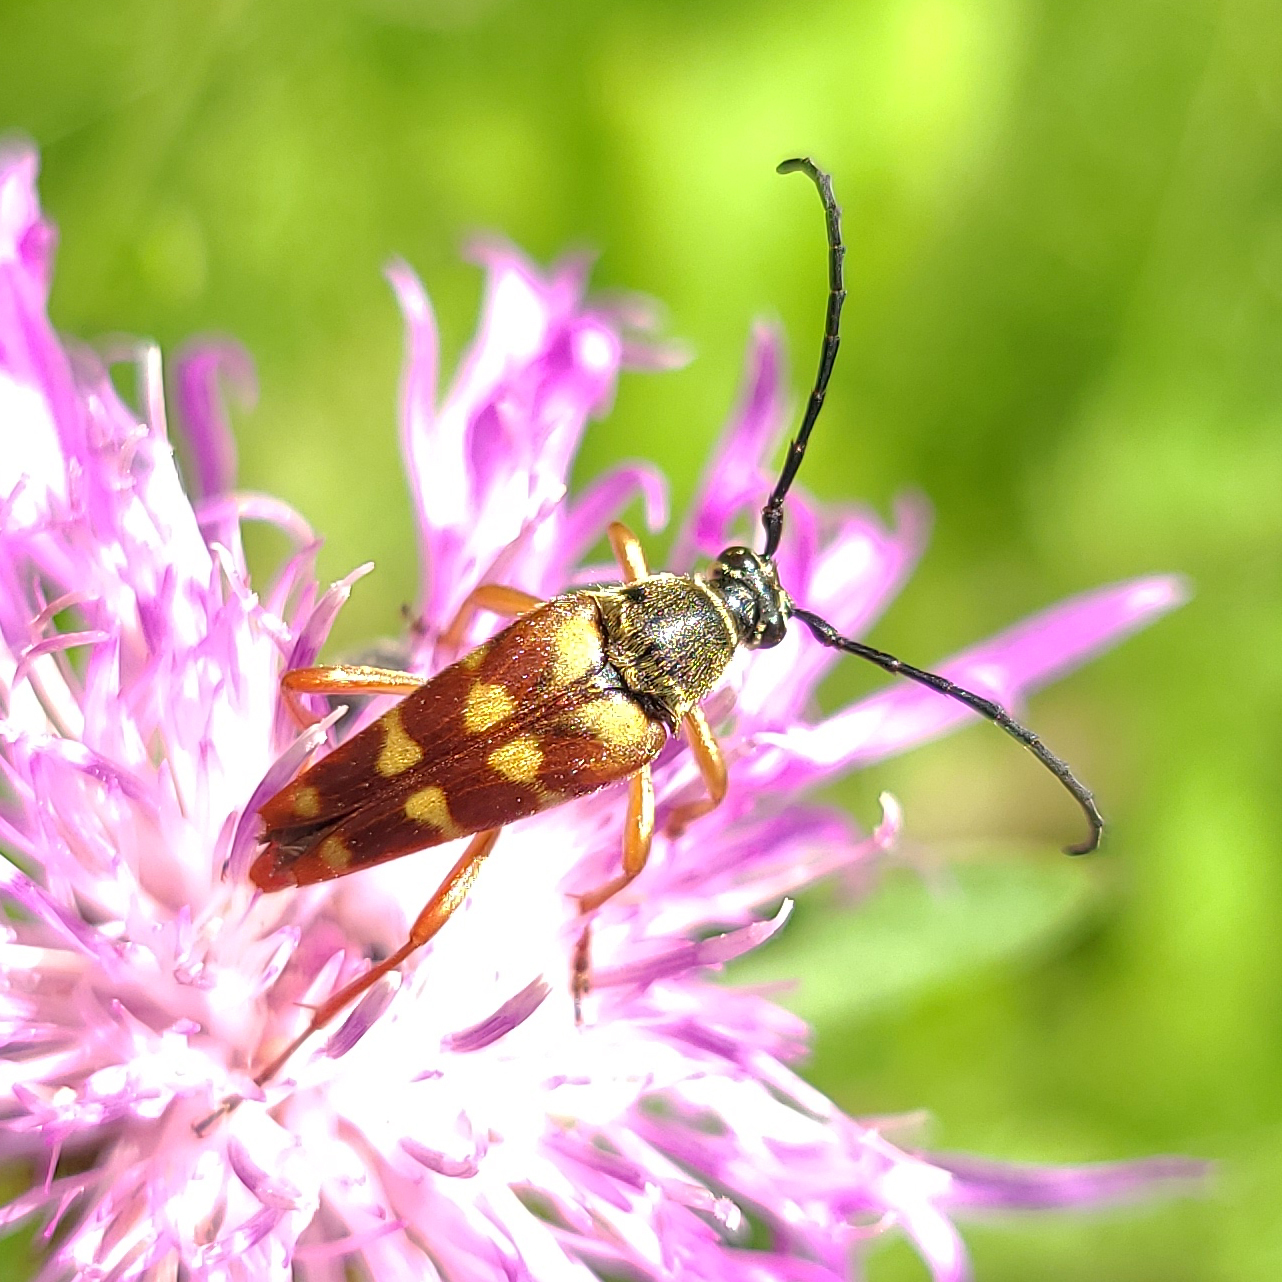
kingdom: Animalia
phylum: Arthropoda
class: Insecta
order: Coleoptera
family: Cerambycidae
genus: Typocerus
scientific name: Typocerus velutinus
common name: Banded longhorn beetle
